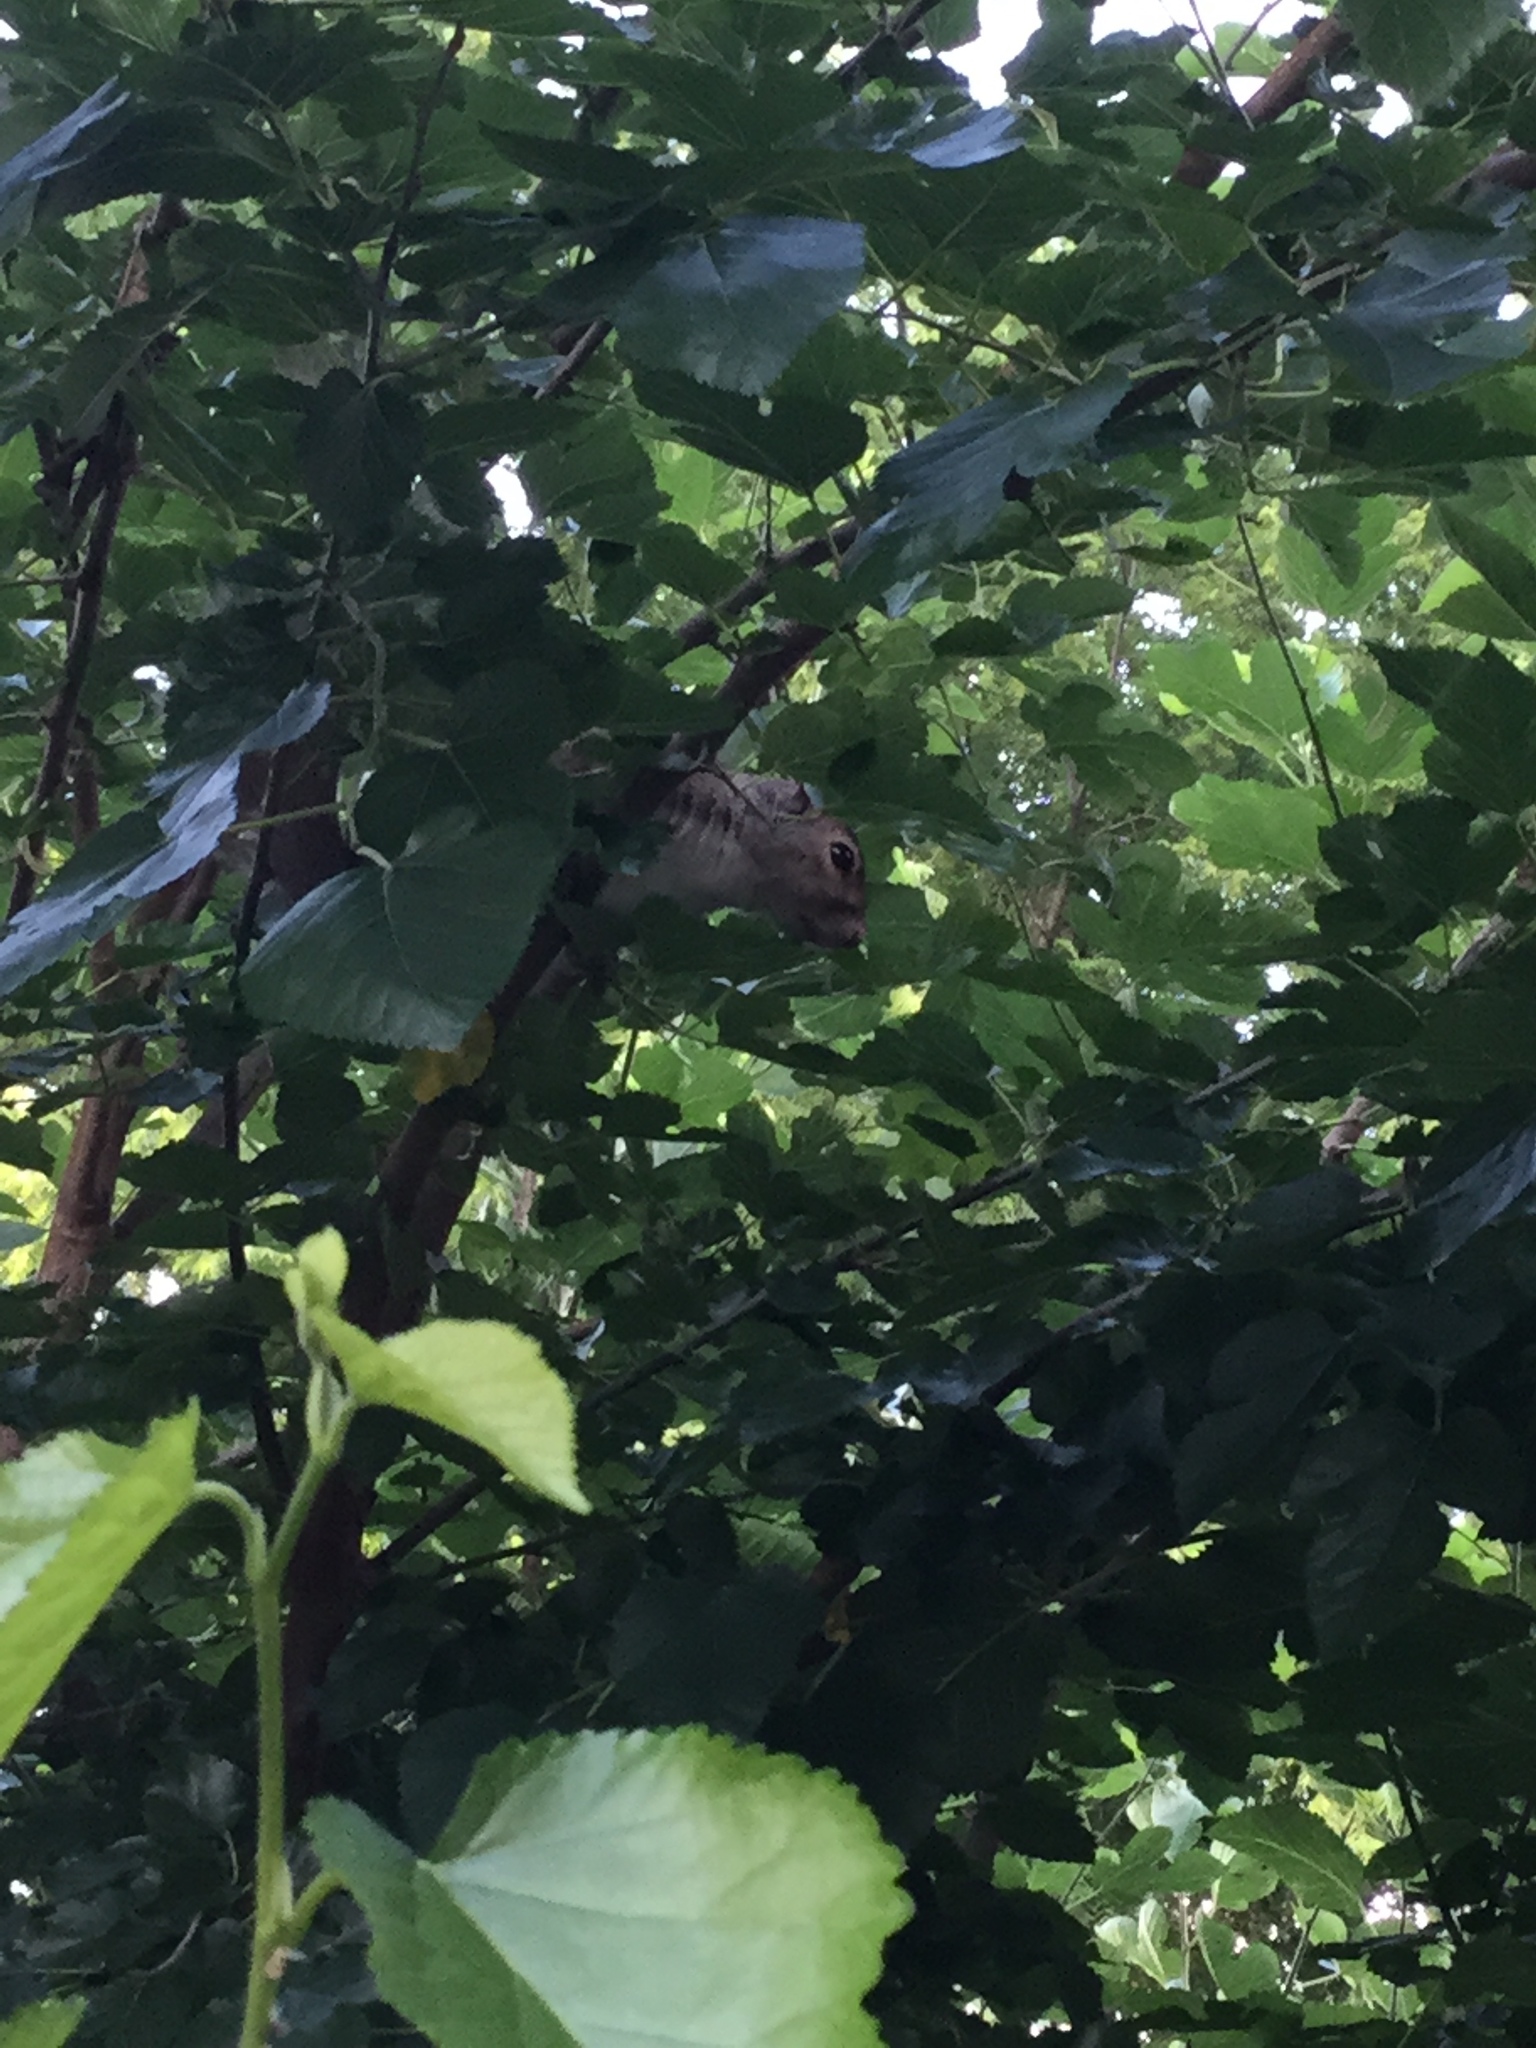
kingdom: Animalia
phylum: Chordata
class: Mammalia
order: Rodentia
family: Sciuridae
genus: Sciurus
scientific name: Sciurus carolinensis
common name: Eastern gray squirrel
